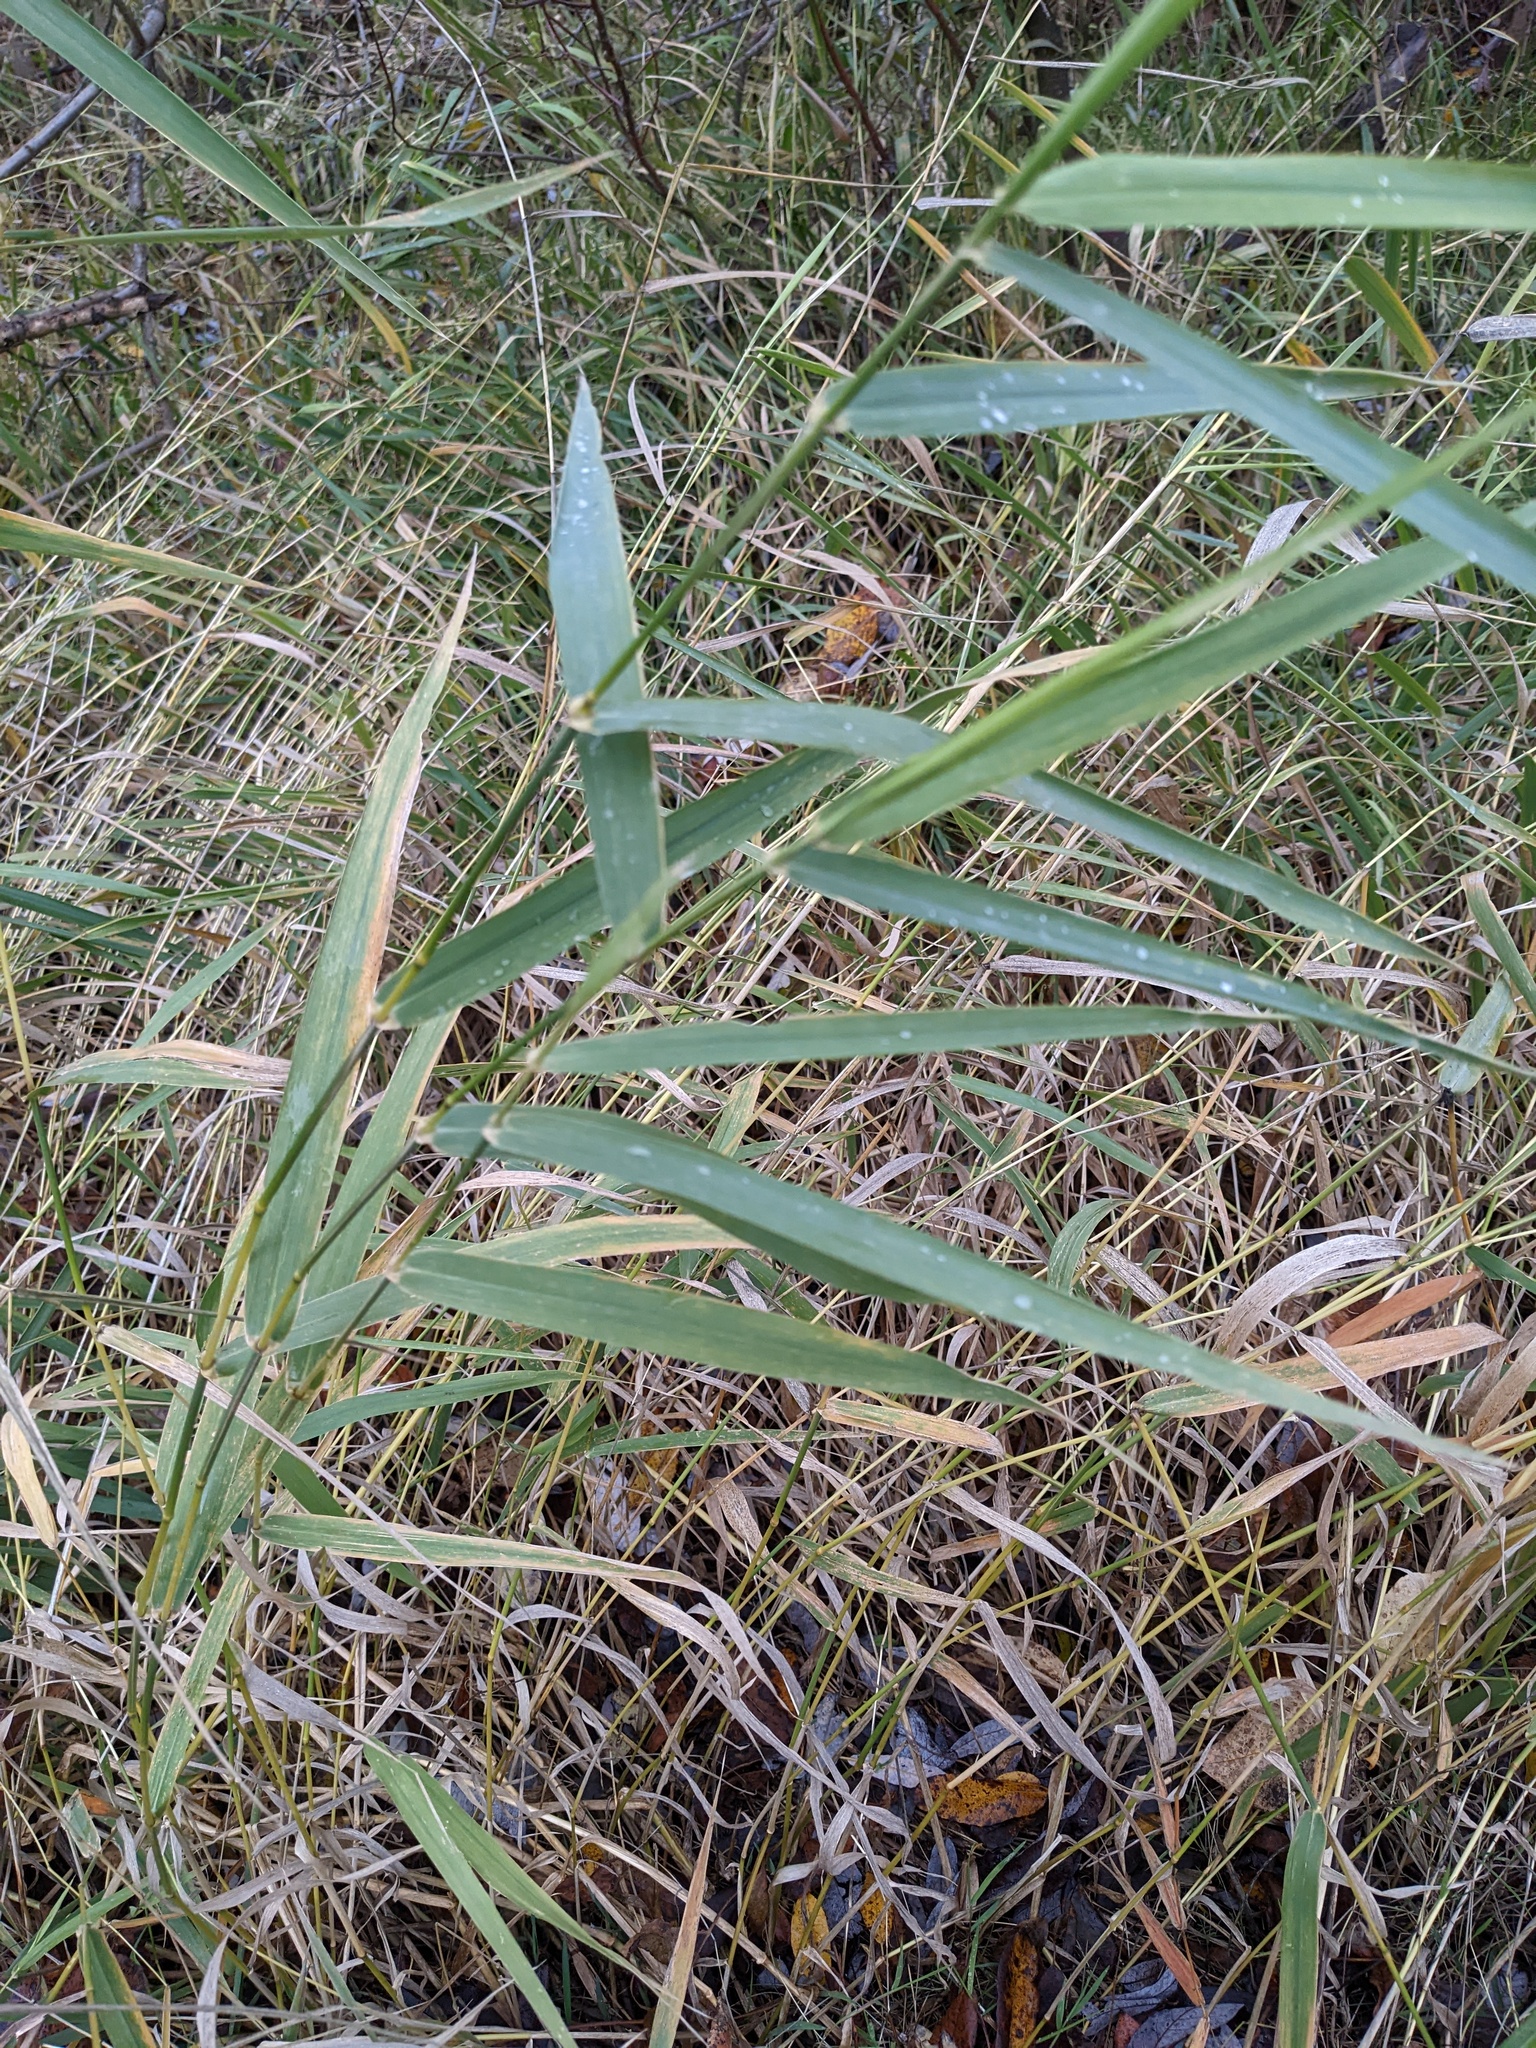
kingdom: Plantae
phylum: Tracheophyta
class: Liliopsida
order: Poales
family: Poaceae
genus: Phalaris
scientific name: Phalaris arundinacea
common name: Reed canary-grass
